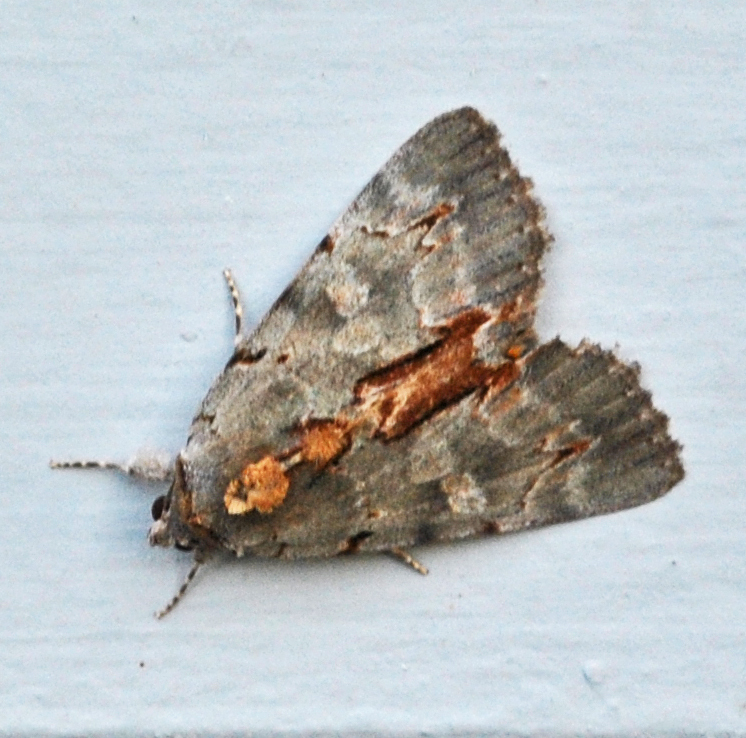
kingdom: Animalia
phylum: Arthropoda
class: Insecta
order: Lepidoptera
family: Erebidae
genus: Catocala
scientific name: Catocala grynea
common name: Woody underwing
